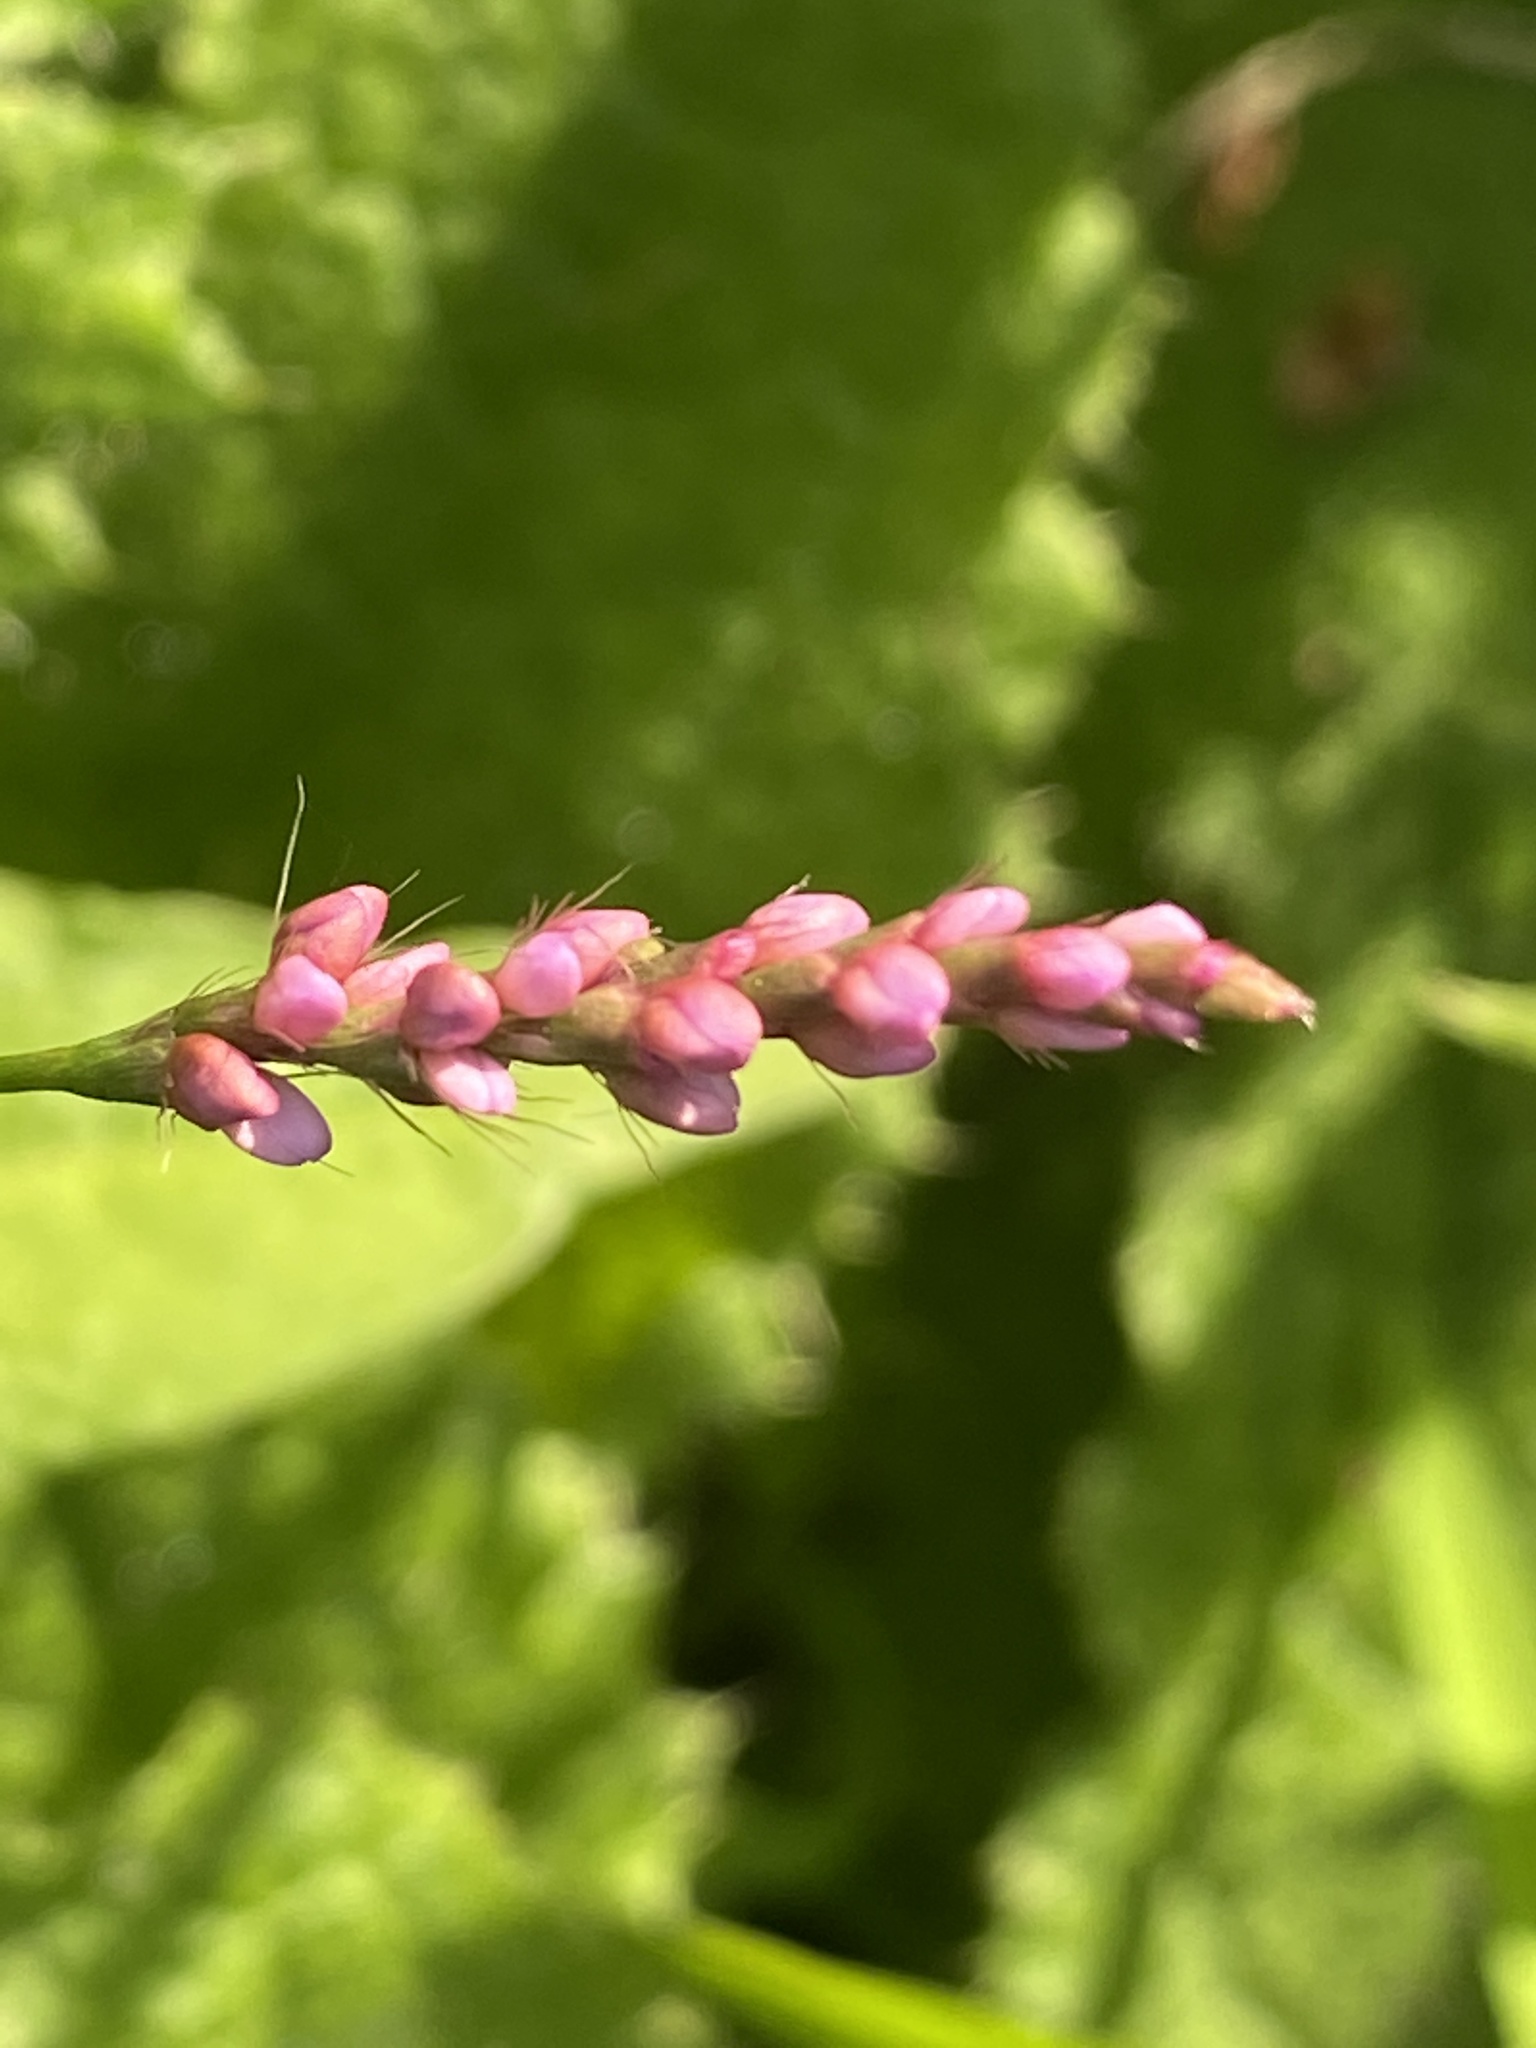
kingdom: Plantae
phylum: Tracheophyta
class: Magnoliopsida
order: Caryophyllales
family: Polygonaceae
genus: Persicaria
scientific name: Persicaria longiseta
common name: Bristly lady's-thumb
